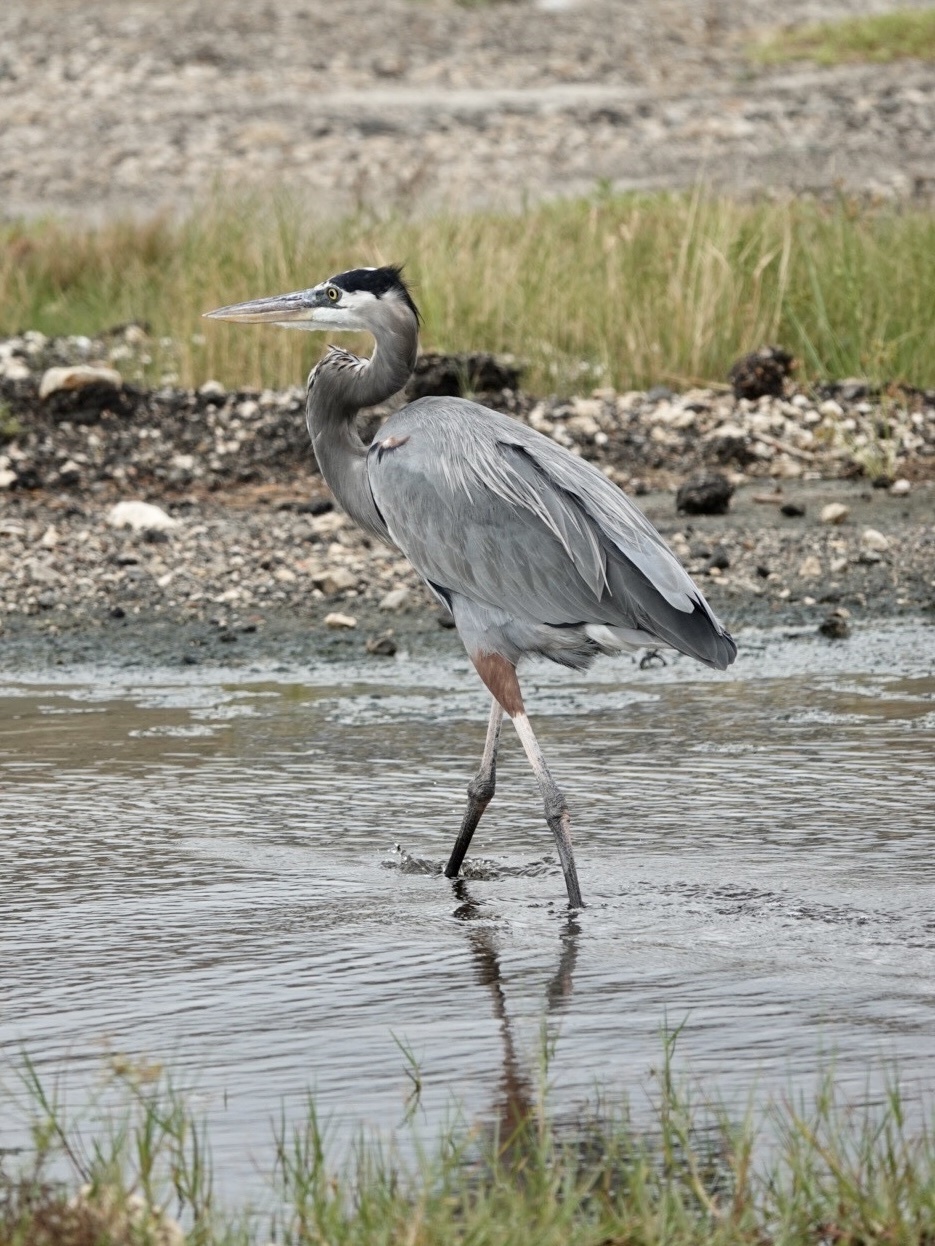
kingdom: Animalia
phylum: Chordata
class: Aves
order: Pelecaniformes
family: Ardeidae
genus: Ardea
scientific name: Ardea herodias
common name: Great blue heron
